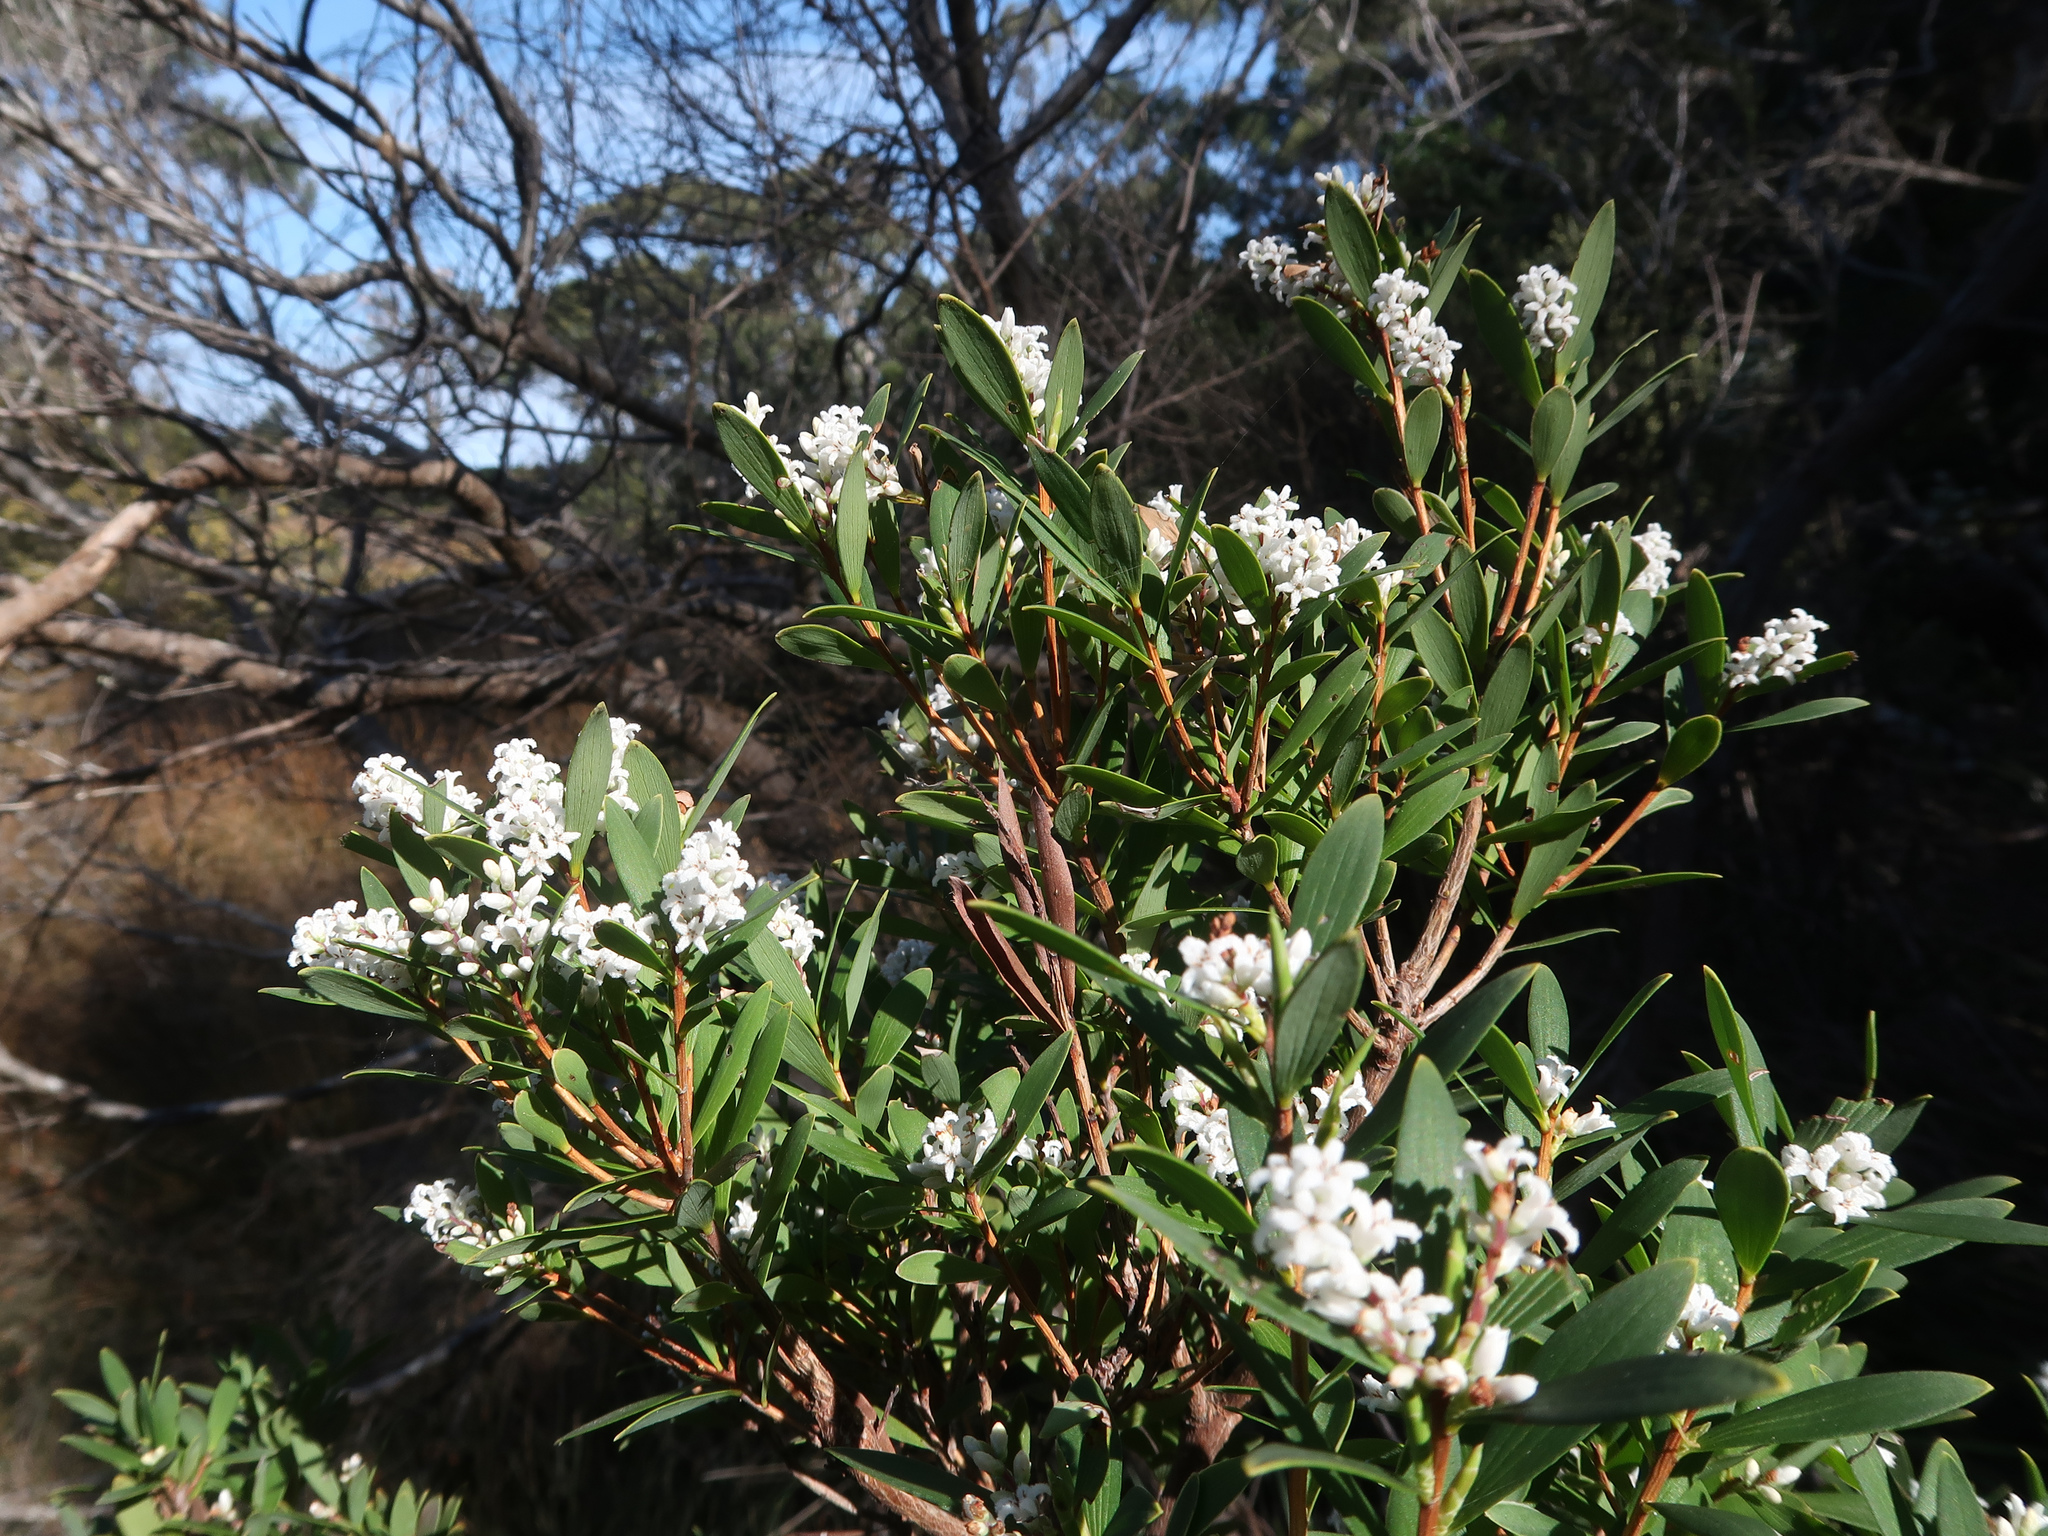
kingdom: Plantae
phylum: Tracheophyta
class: Magnoliopsida
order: Ericales
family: Ericaceae
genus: Leptecophylla
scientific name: Leptecophylla parvifolia
